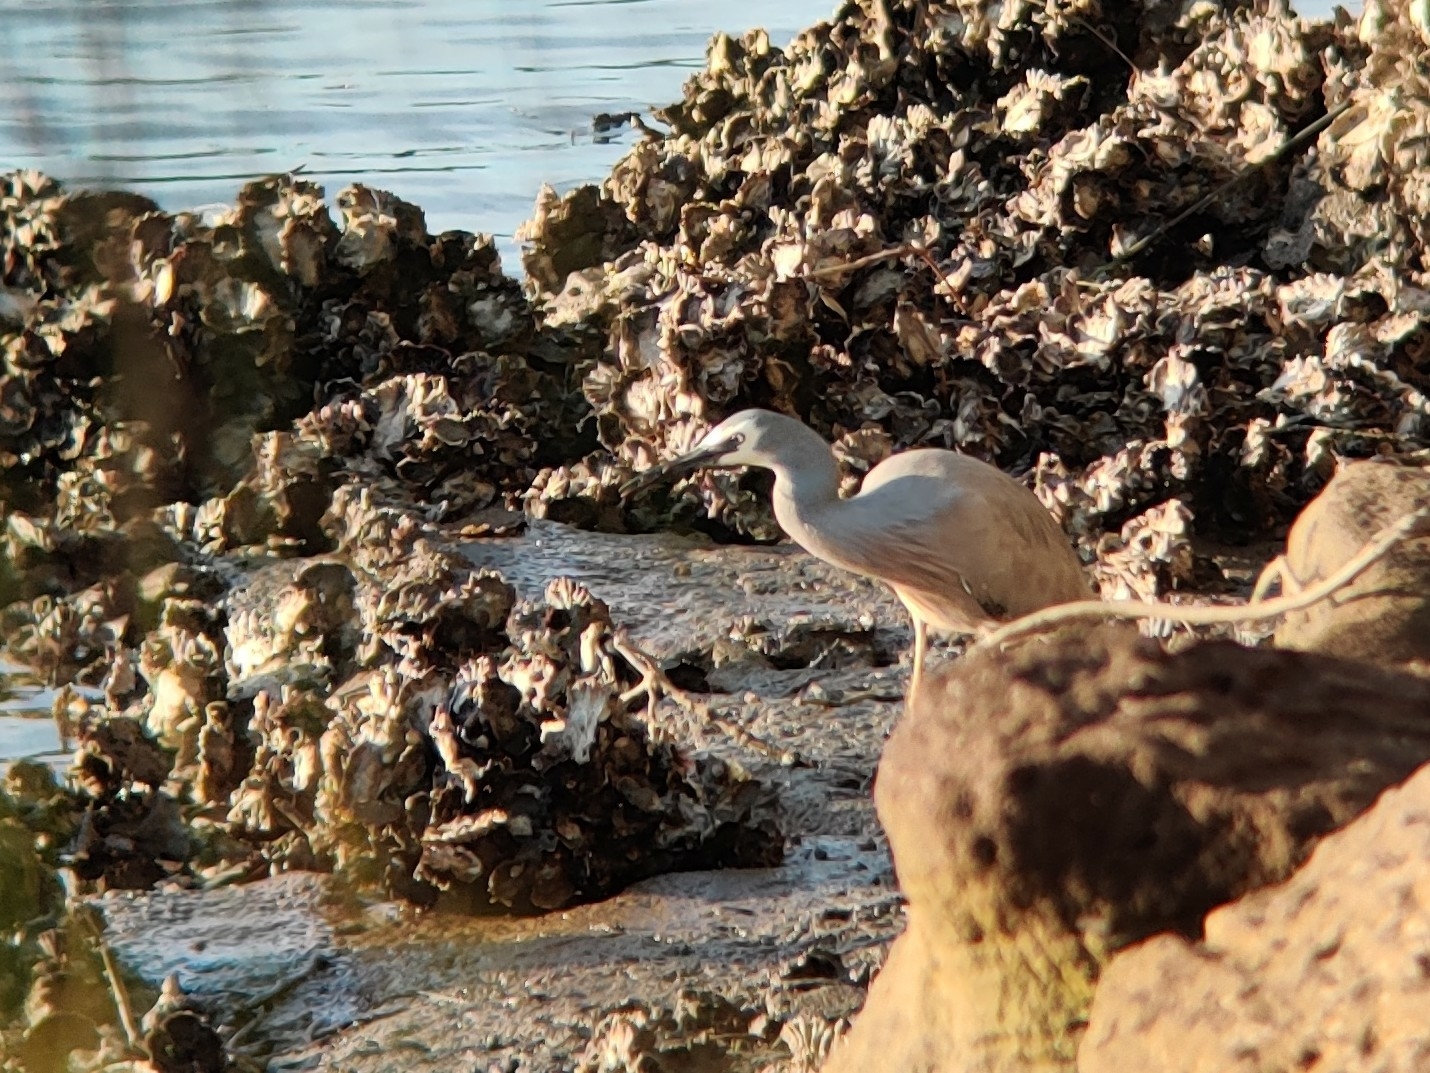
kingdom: Animalia
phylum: Chordata
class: Aves
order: Pelecaniformes
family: Ardeidae
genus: Egretta
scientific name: Egretta novaehollandiae
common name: White-faced heron
